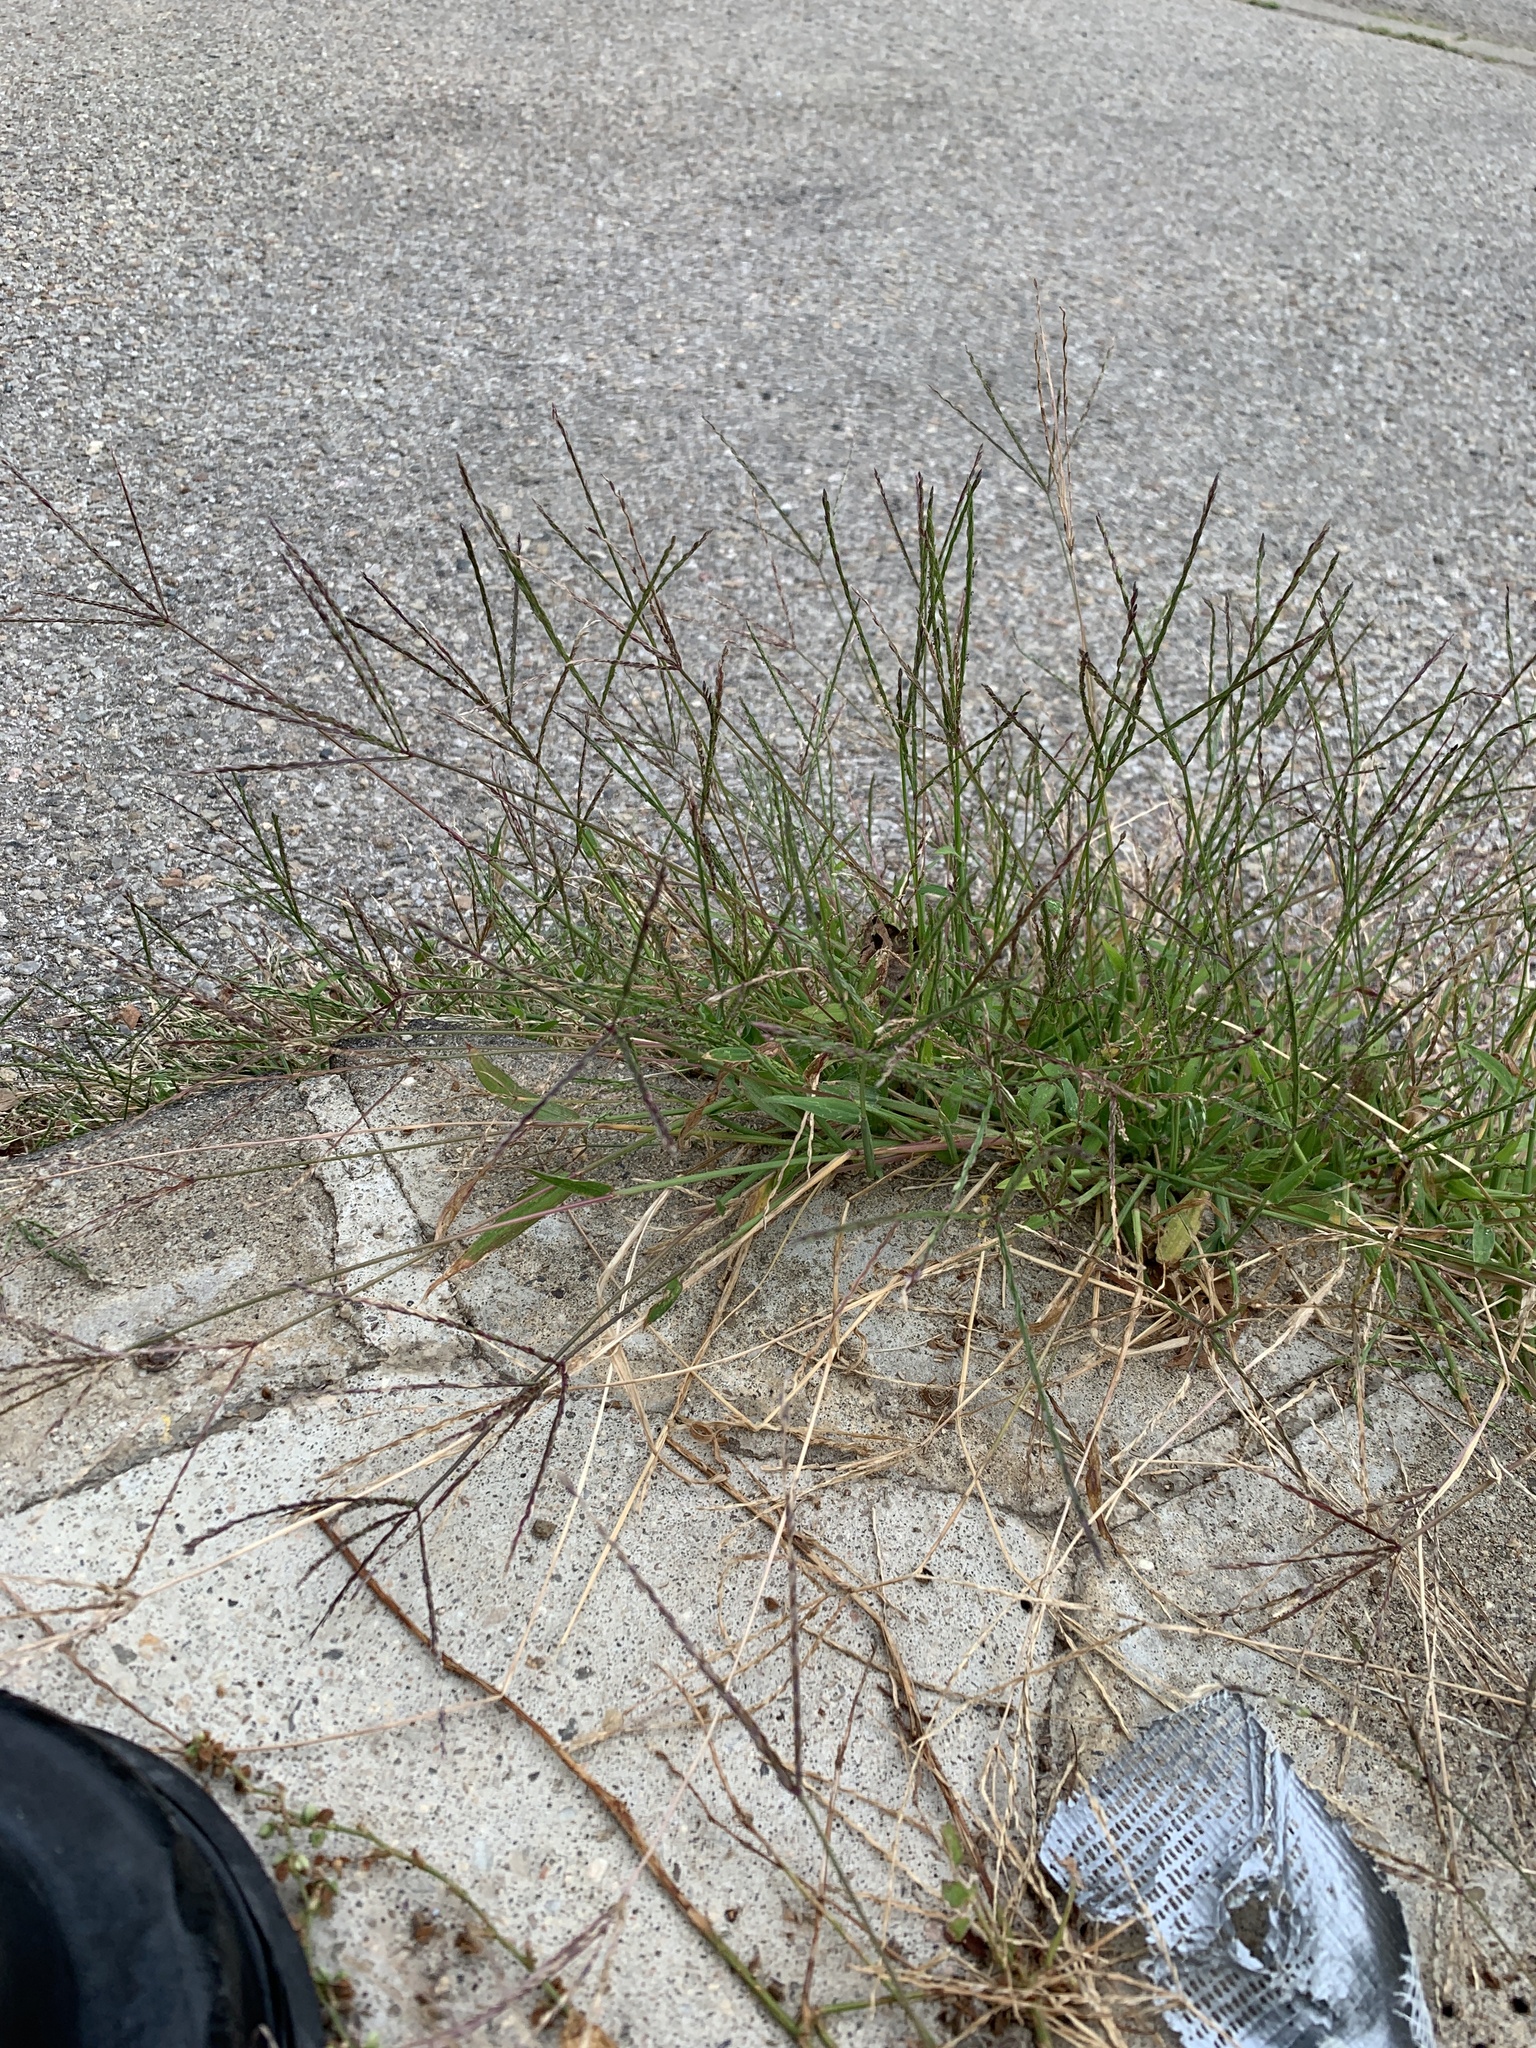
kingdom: Plantae
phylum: Tracheophyta
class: Liliopsida
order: Poales
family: Poaceae
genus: Digitaria
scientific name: Digitaria sanguinalis
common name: Hairy crabgrass
